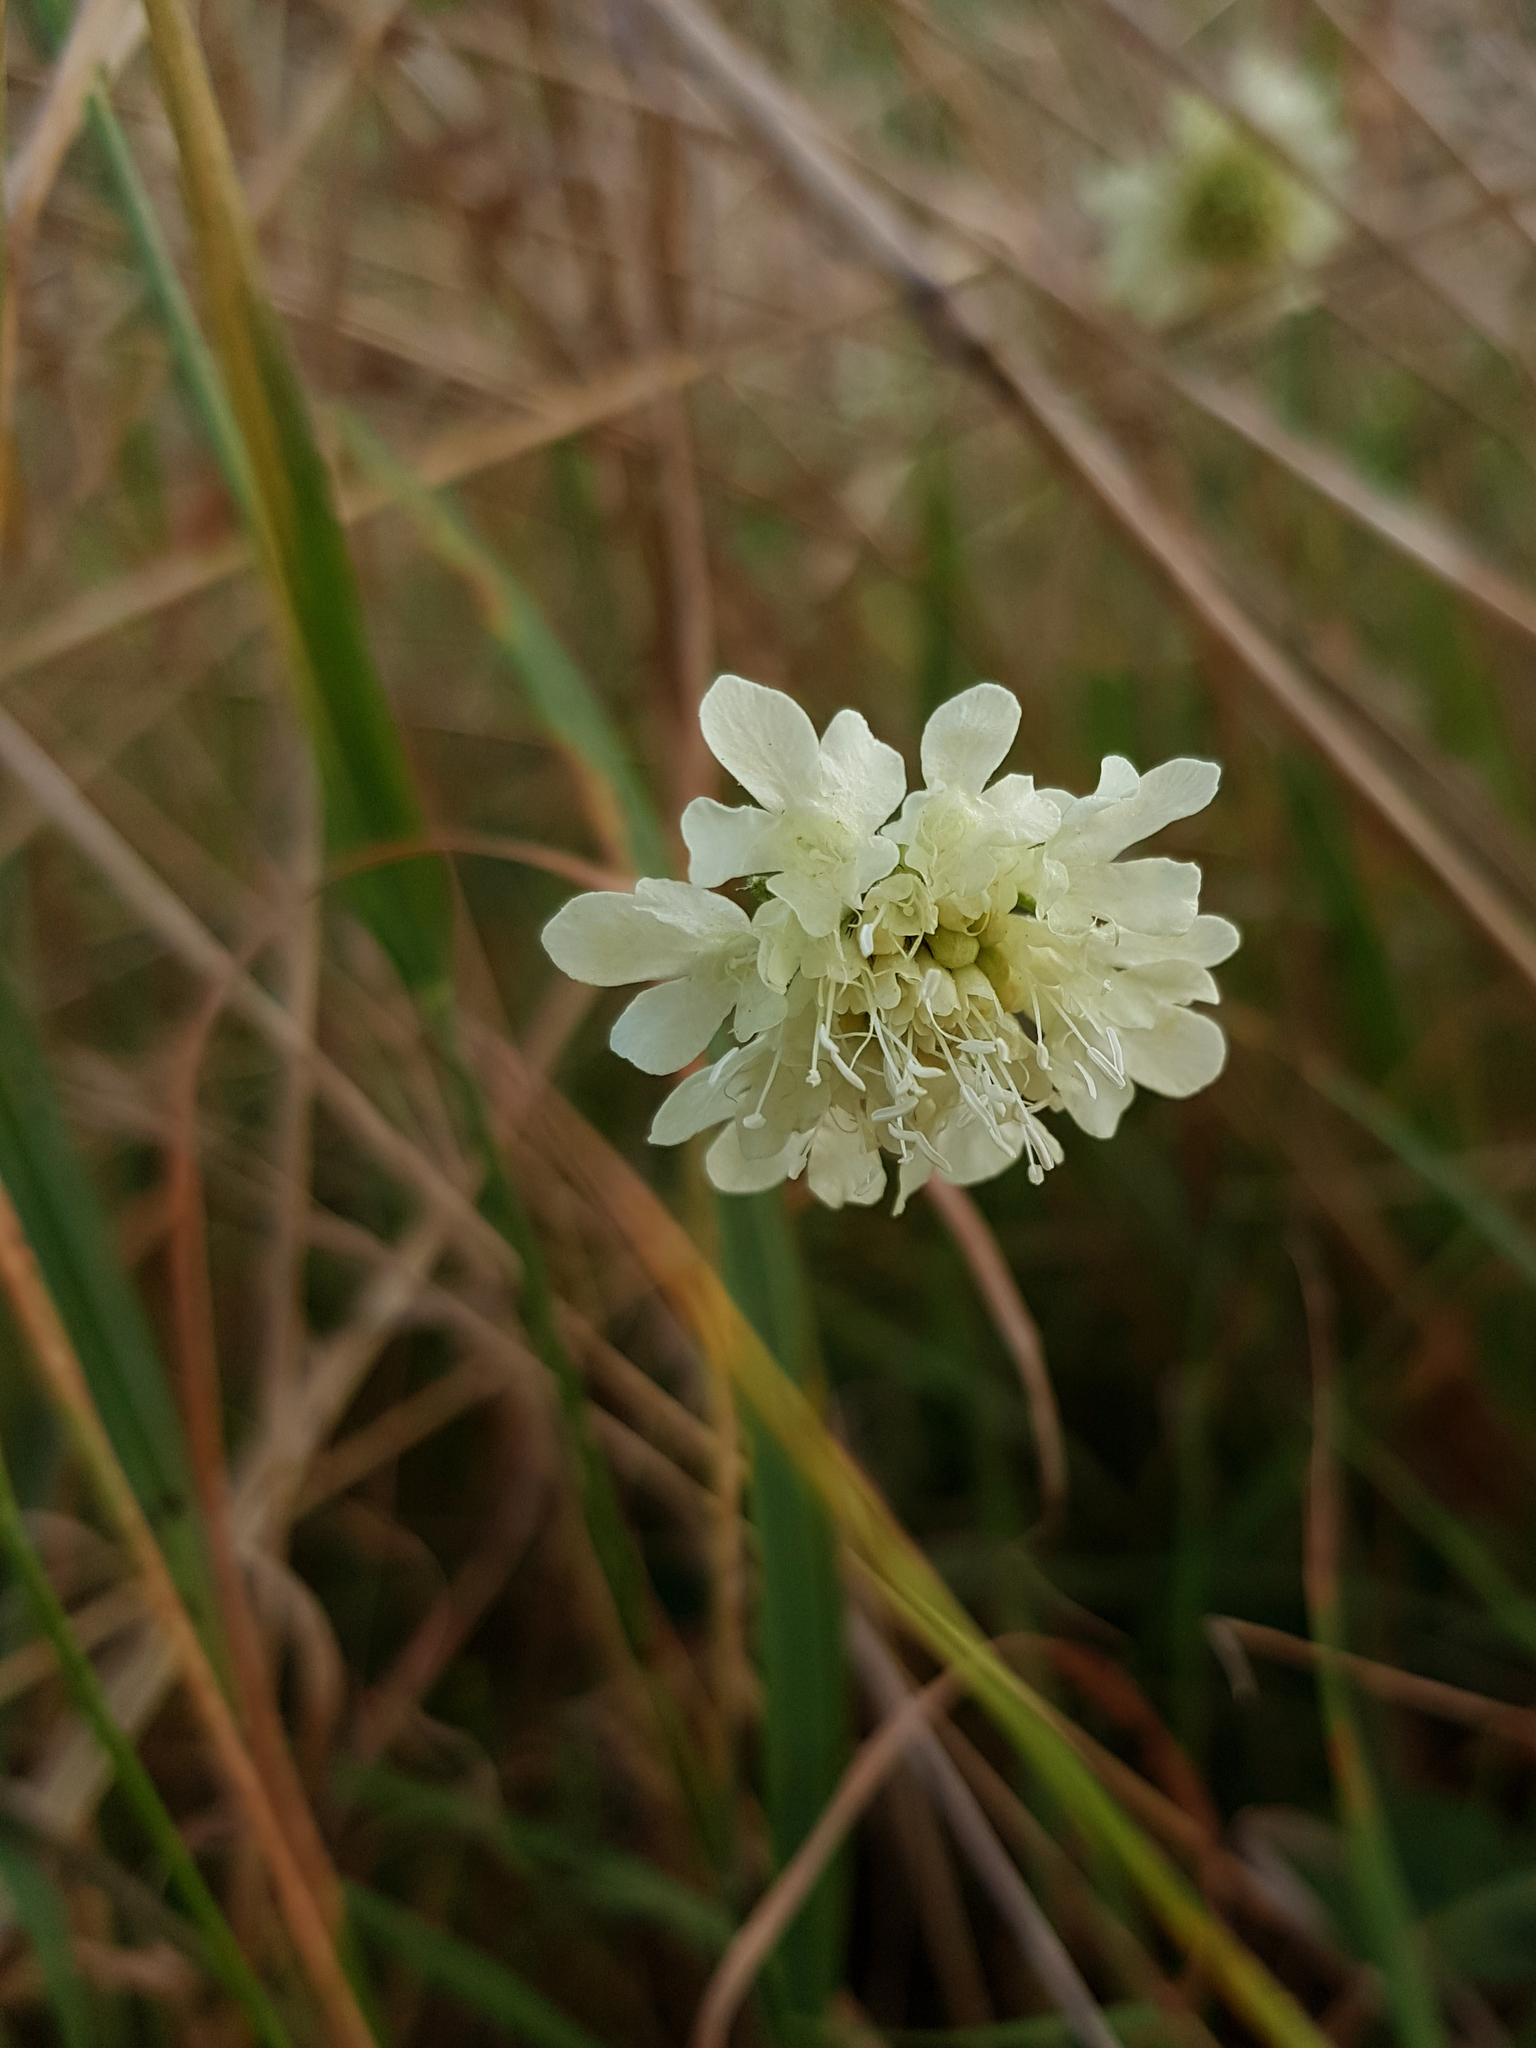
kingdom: Plantae
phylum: Tracheophyta
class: Magnoliopsida
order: Dipsacales
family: Caprifoliaceae
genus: Scabiosa
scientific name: Scabiosa ochroleuca
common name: Cream pincushions
